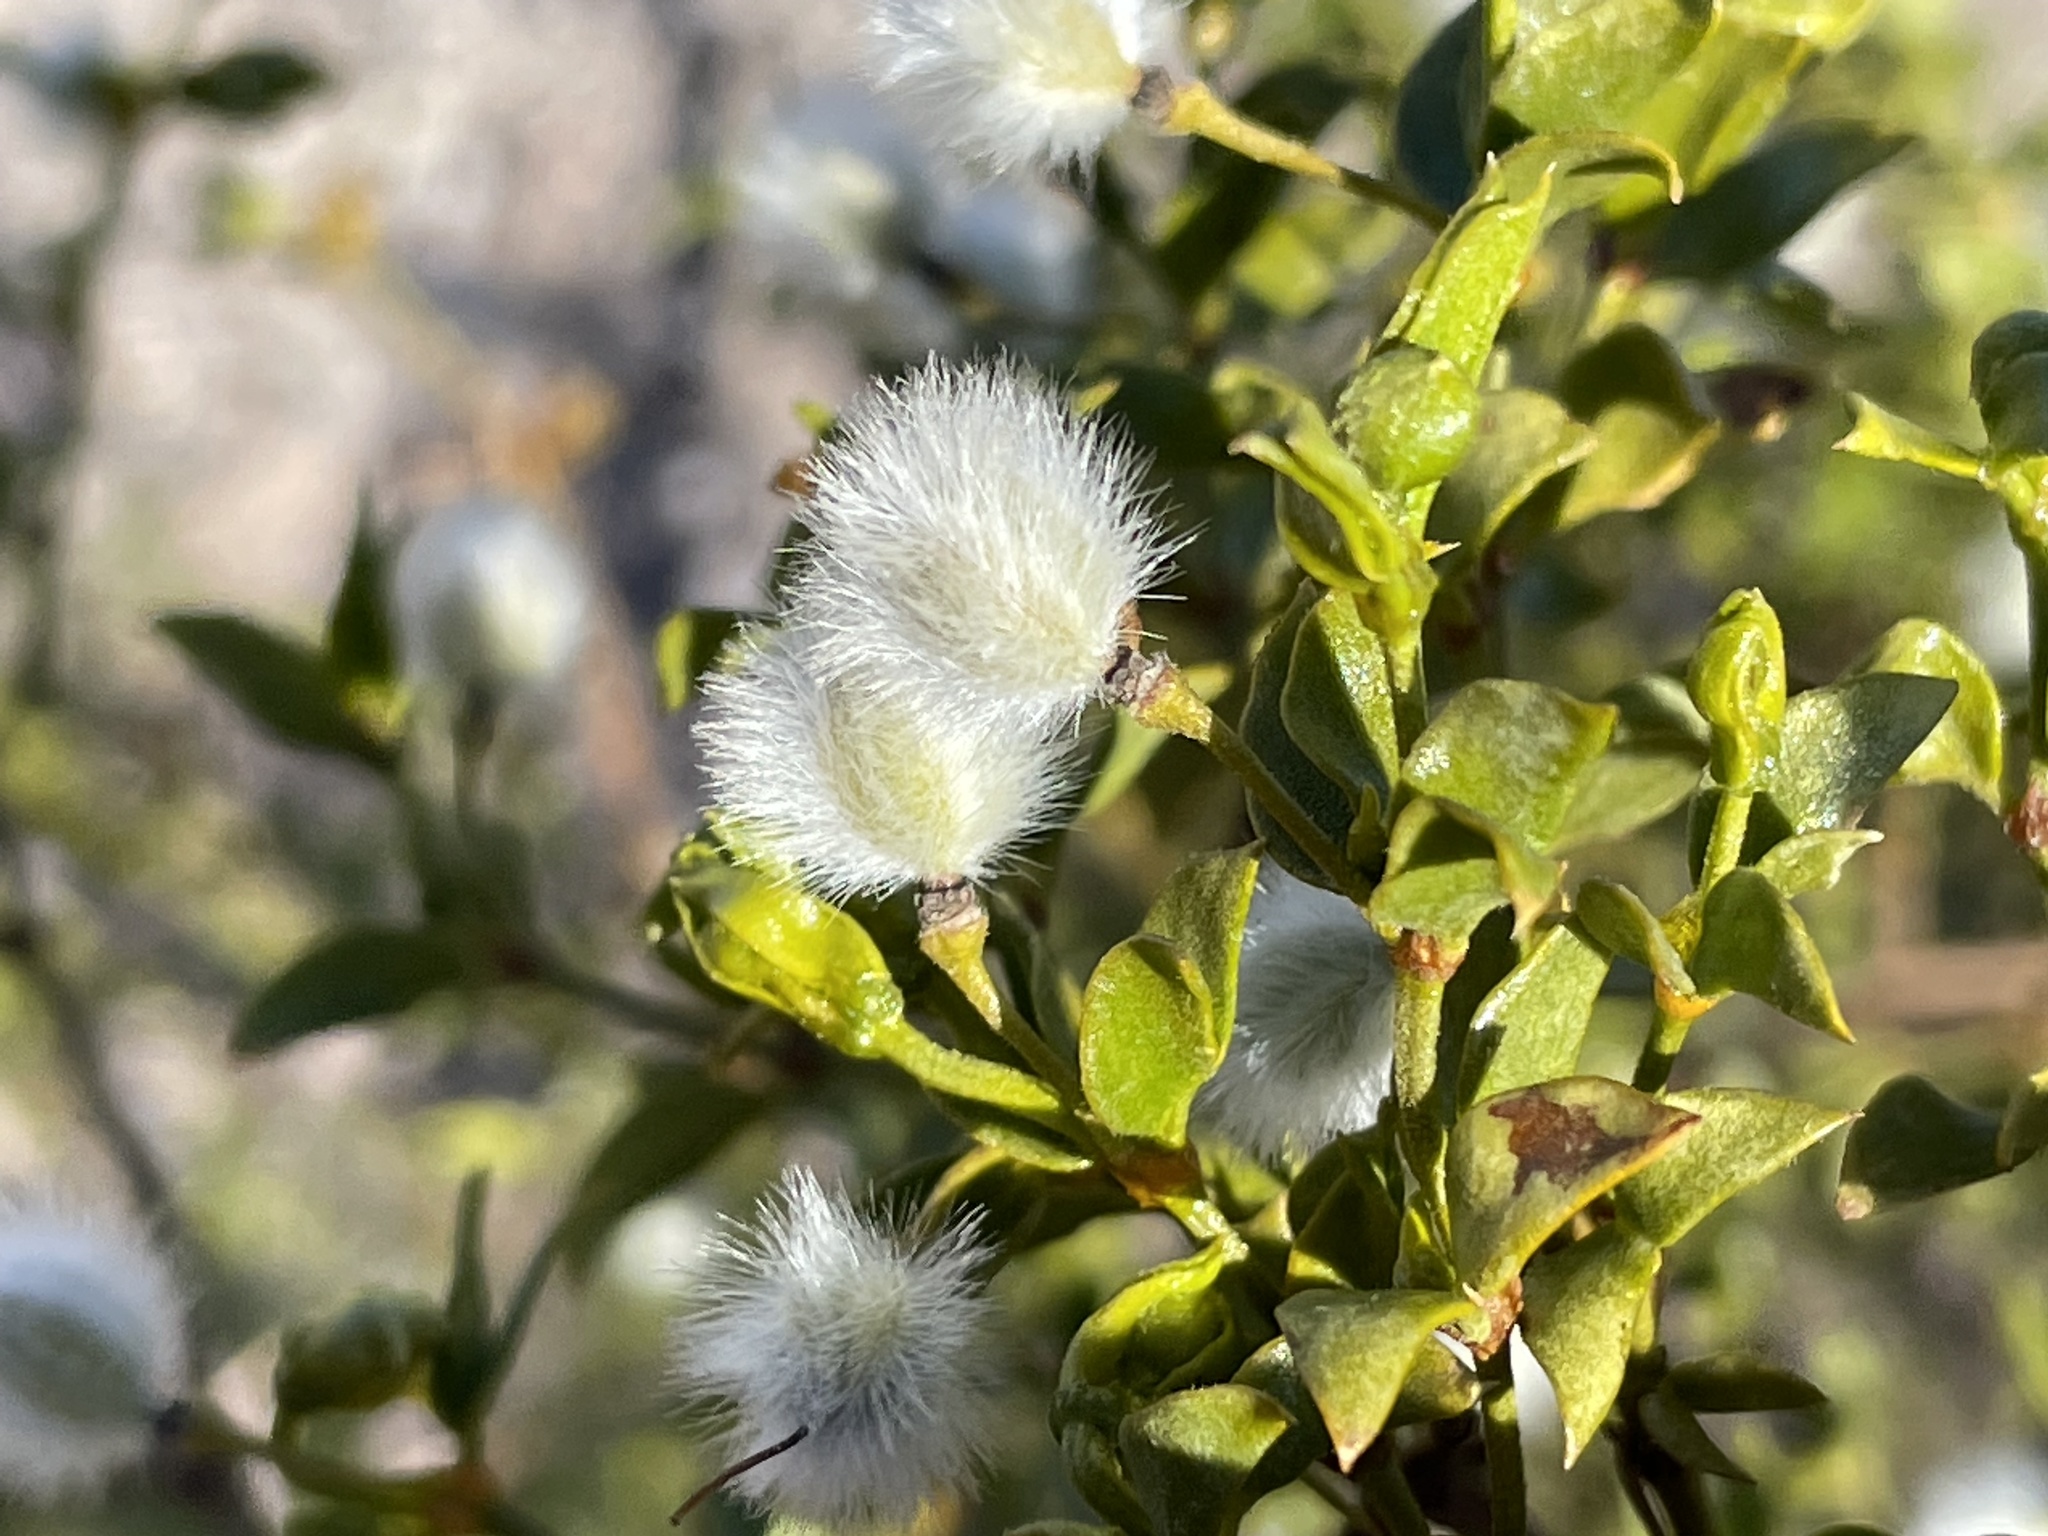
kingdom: Plantae
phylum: Tracheophyta
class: Magnoliopsida
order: Zygophyllales
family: Zygophyllaceae
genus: Larrea
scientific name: Larrea tridentata
